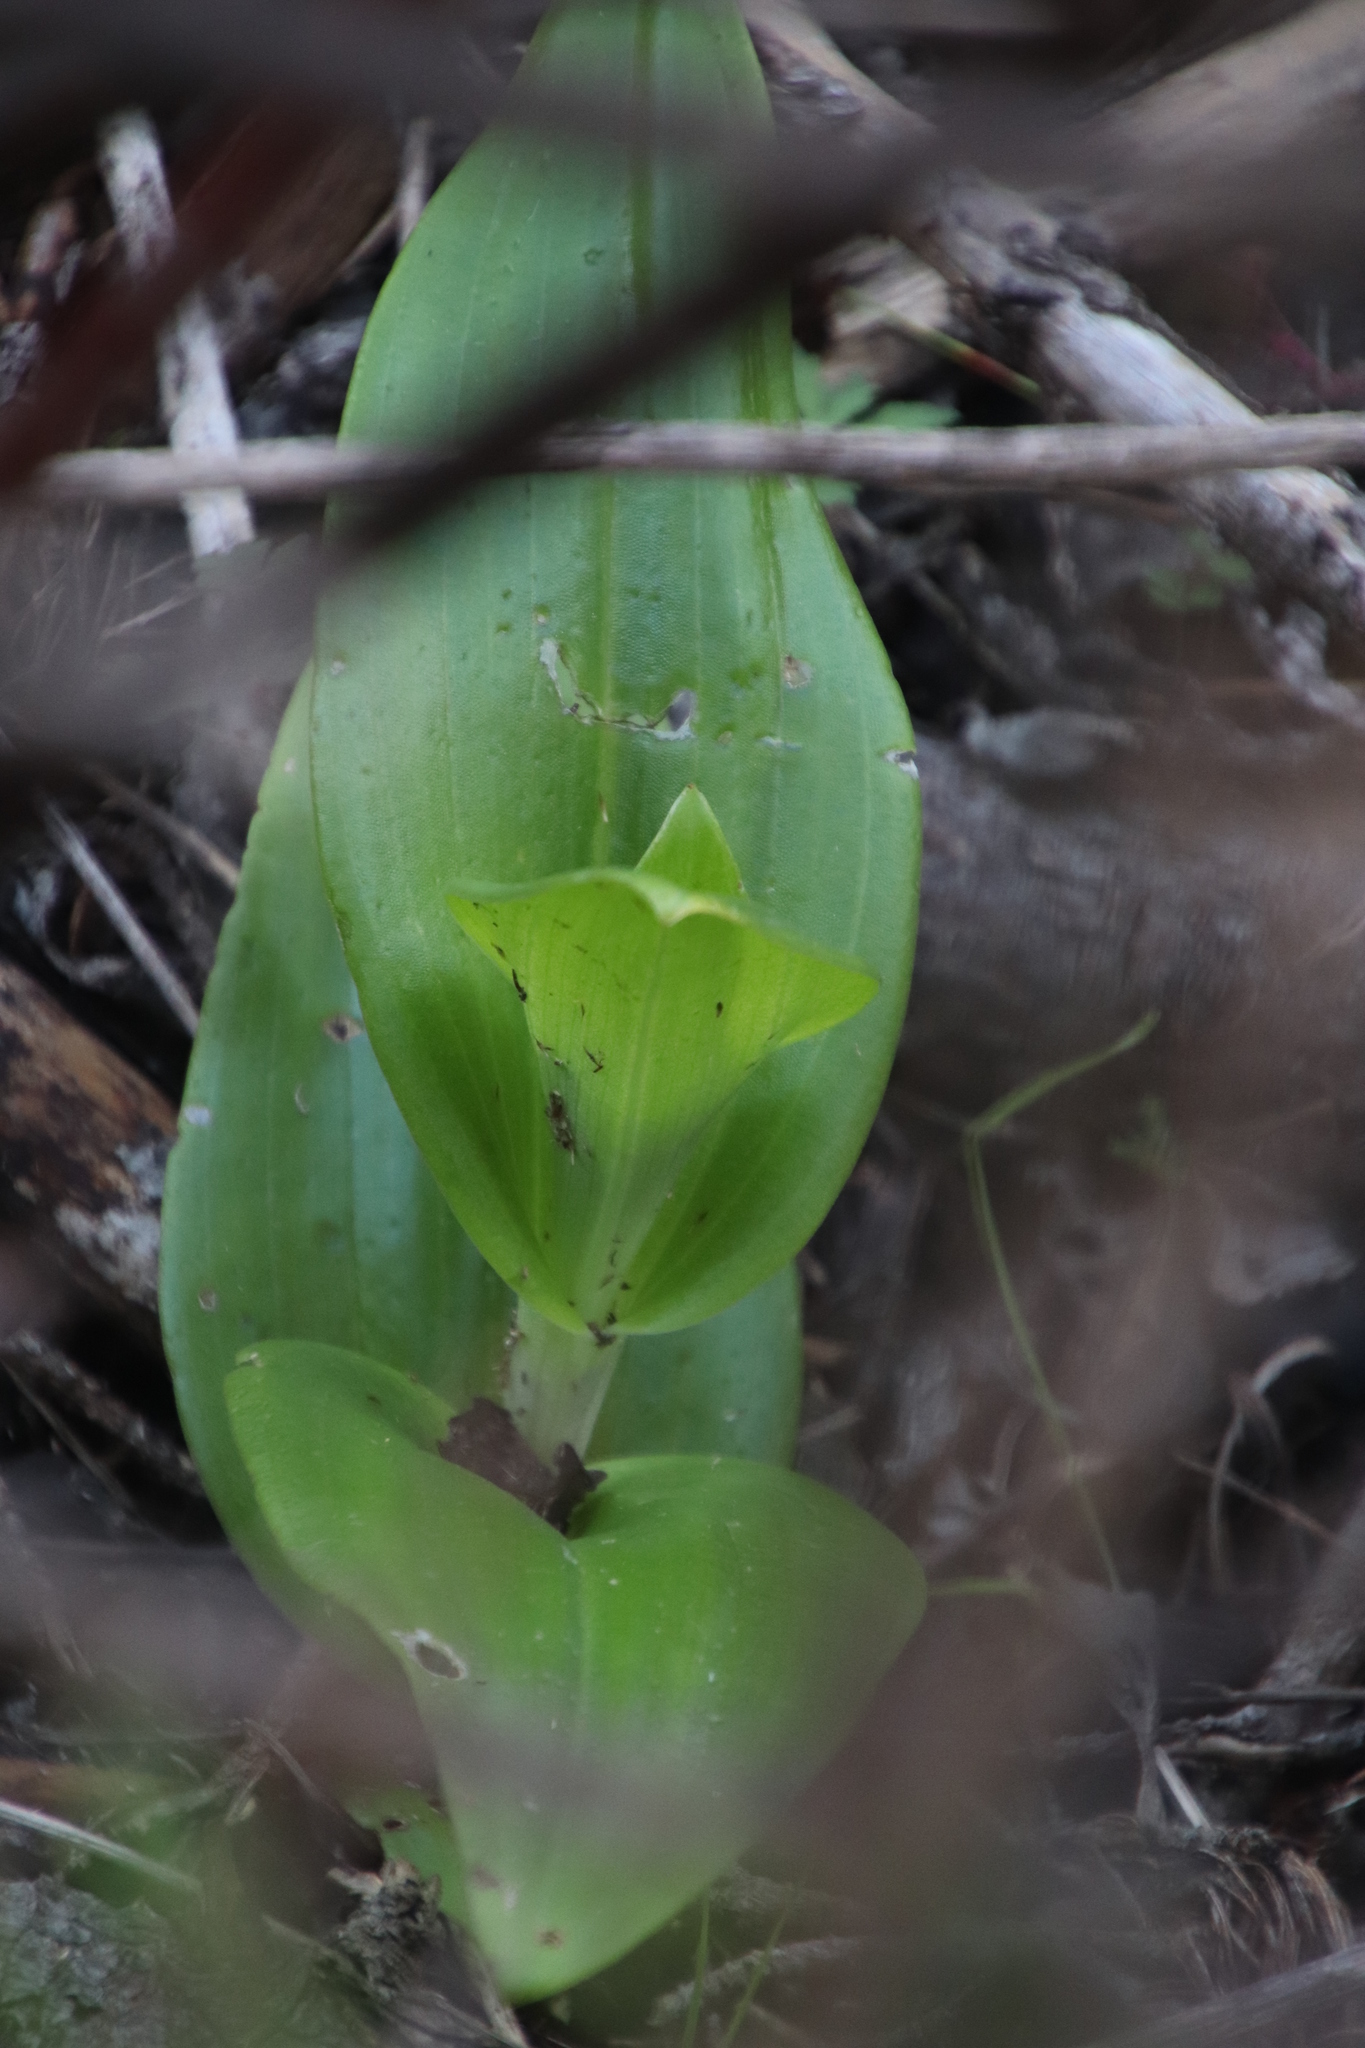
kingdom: Plantae
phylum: Tracheophyta
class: Liliopsida
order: Asparagales
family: Orchidaceae
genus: Satyrium
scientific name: Satyrium odorum
